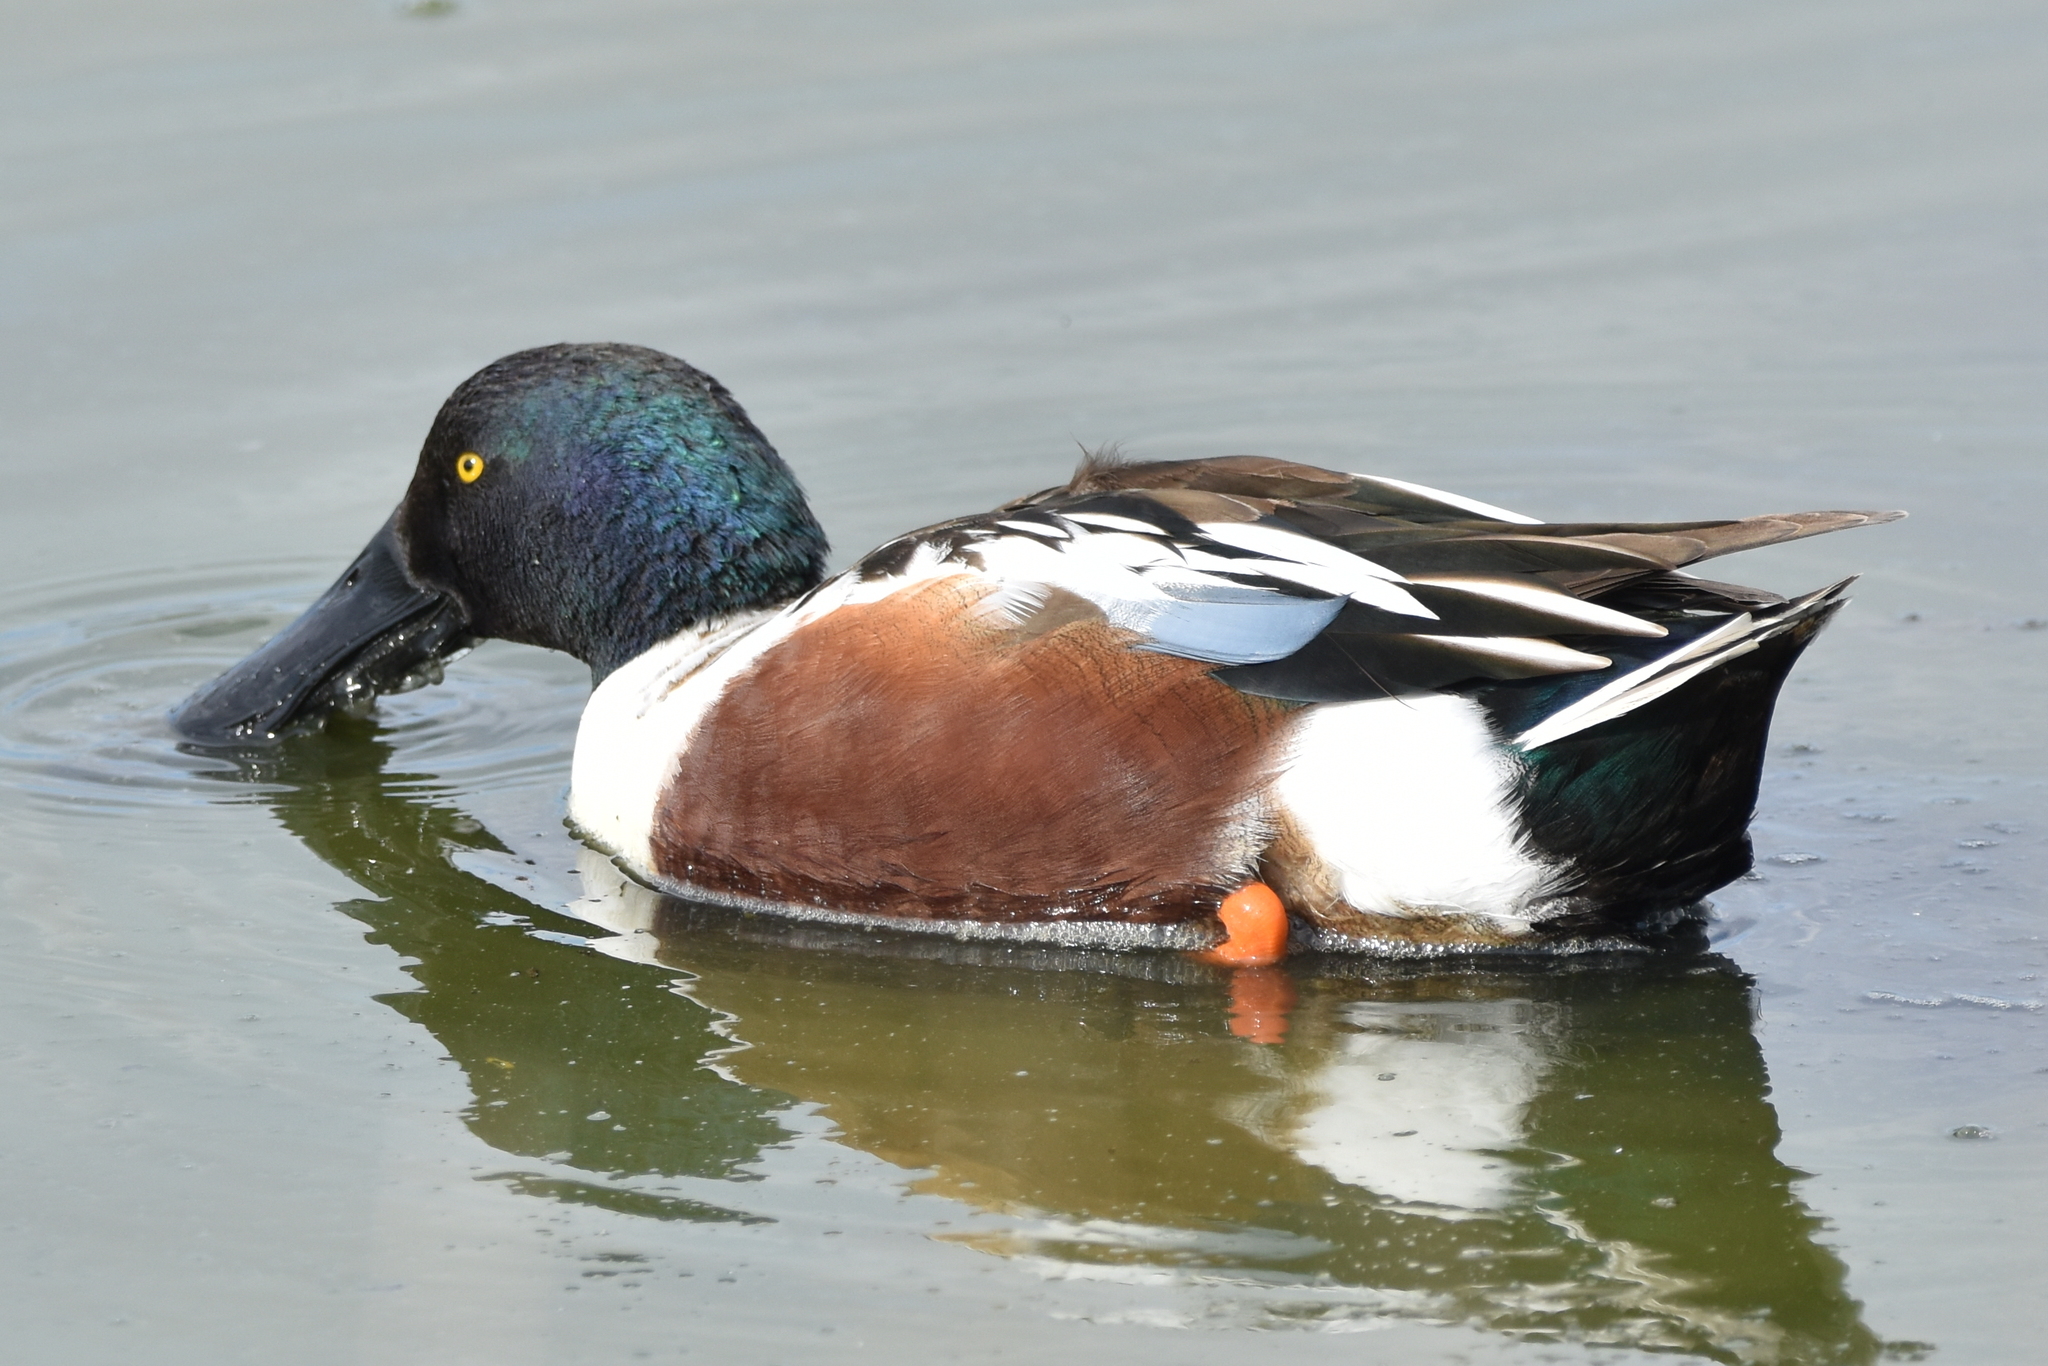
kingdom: Animalia
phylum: Chordata
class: Aves
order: Anseriformes
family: Anatidae
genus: Spatula
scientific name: Spatula clypeata
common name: Northern shoveler
